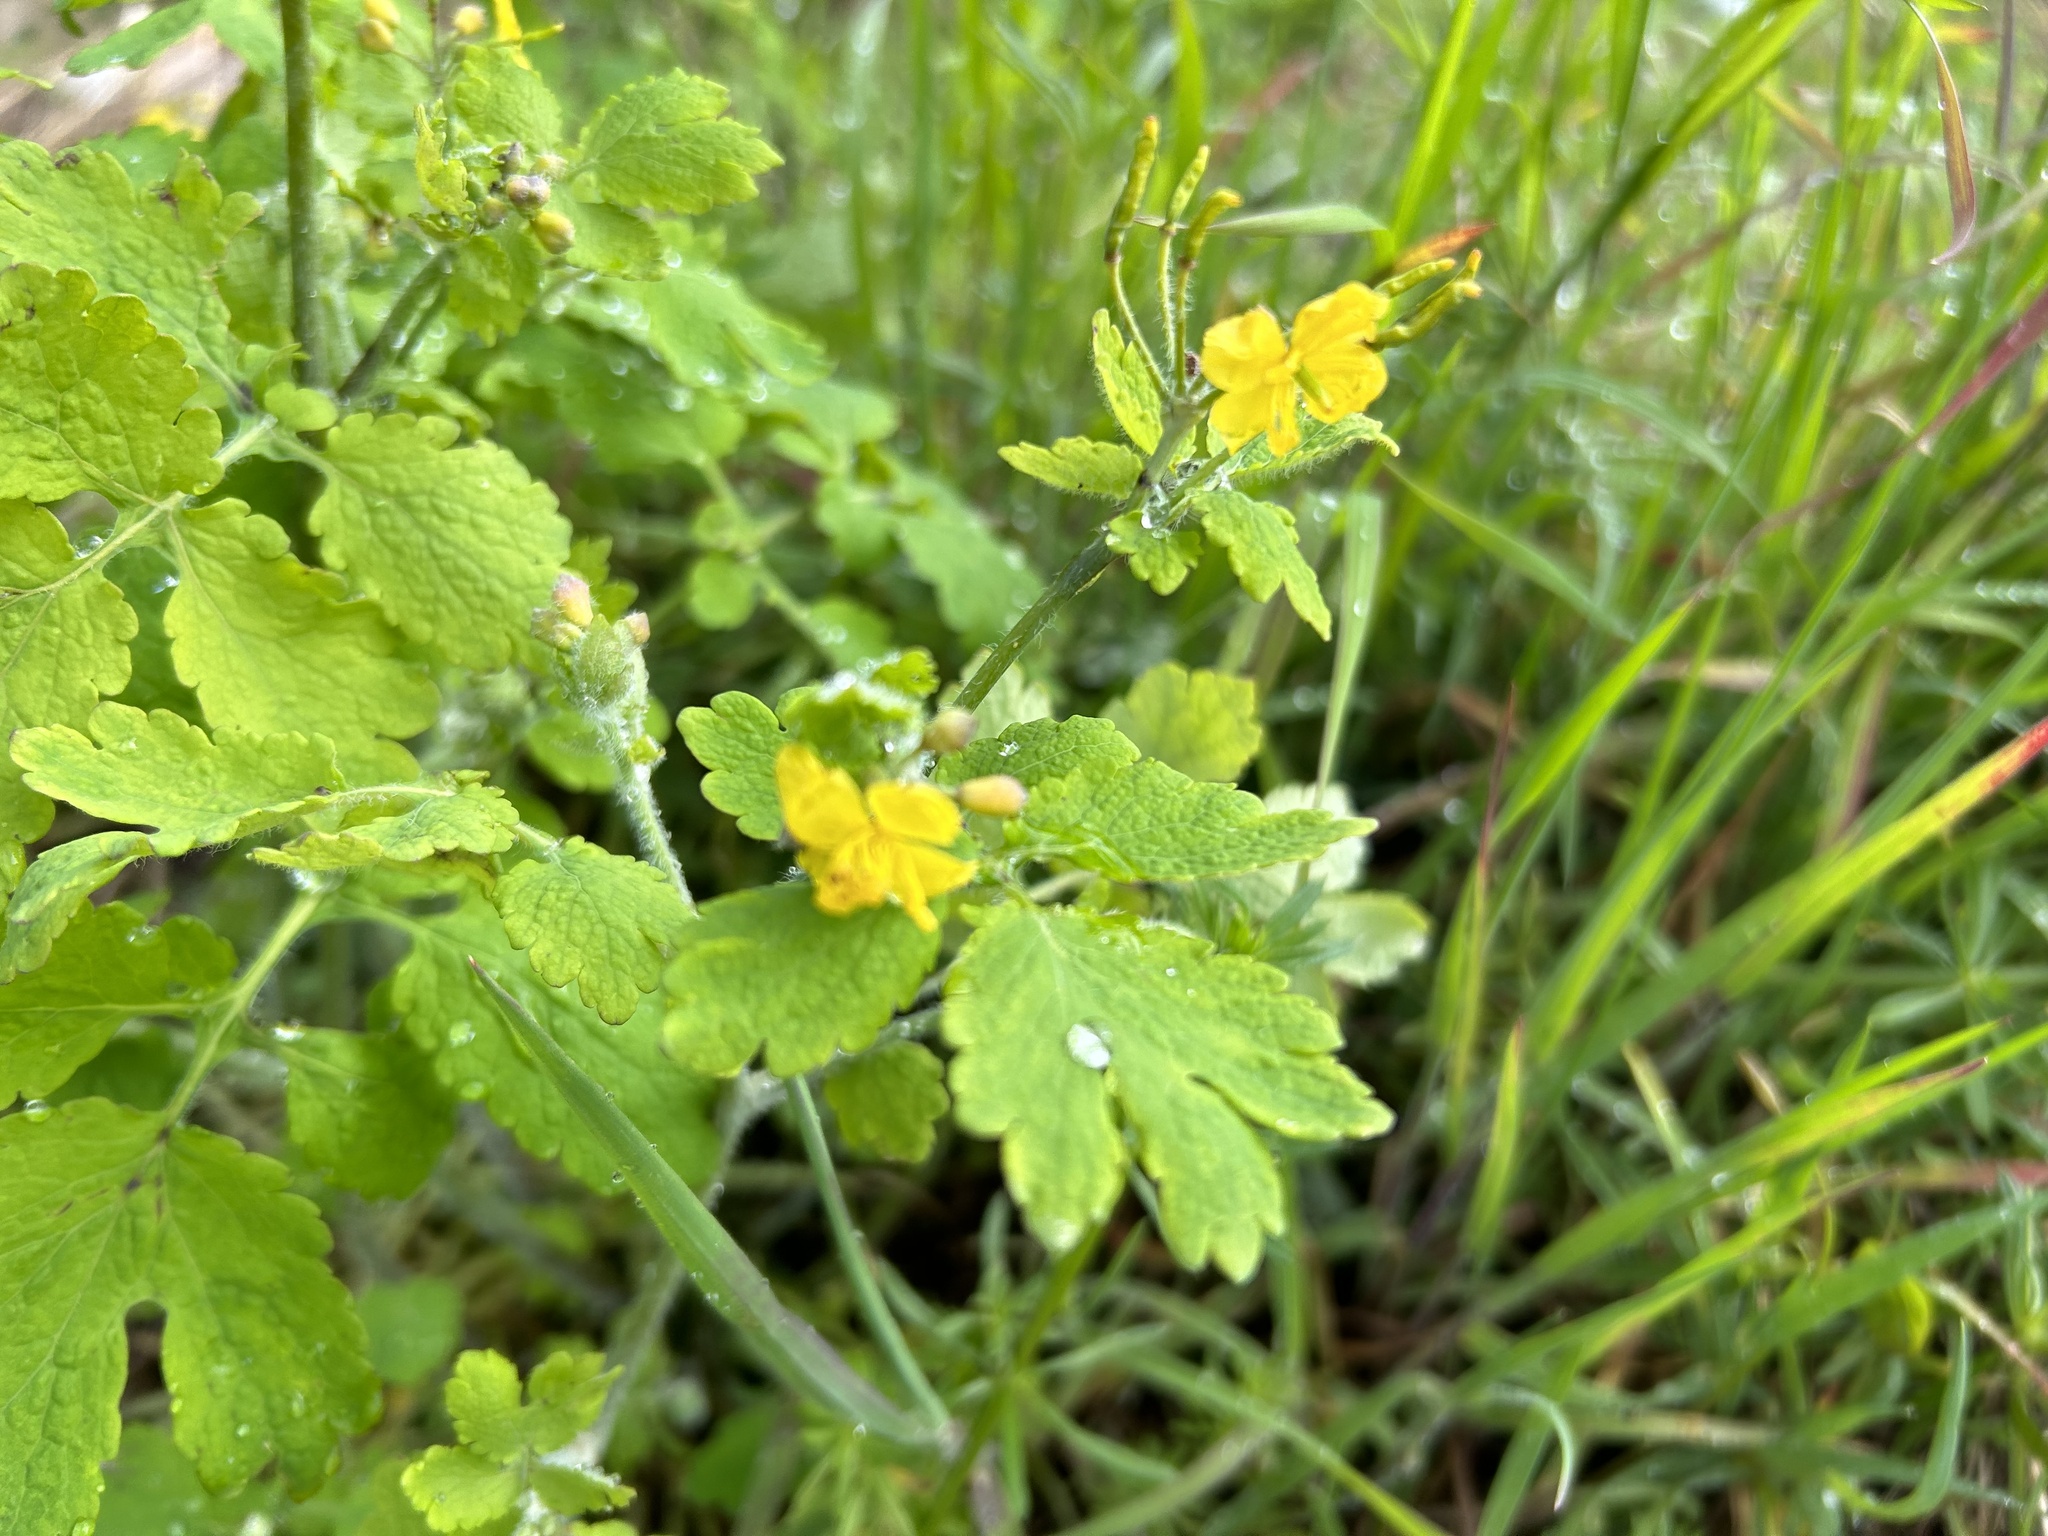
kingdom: Plantae
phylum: Tracheophyta
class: Magnoliopsida
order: Ranunculales
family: Papaveraceae
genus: Chelidonium
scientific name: Chelidonium majus
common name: Greater celandine
